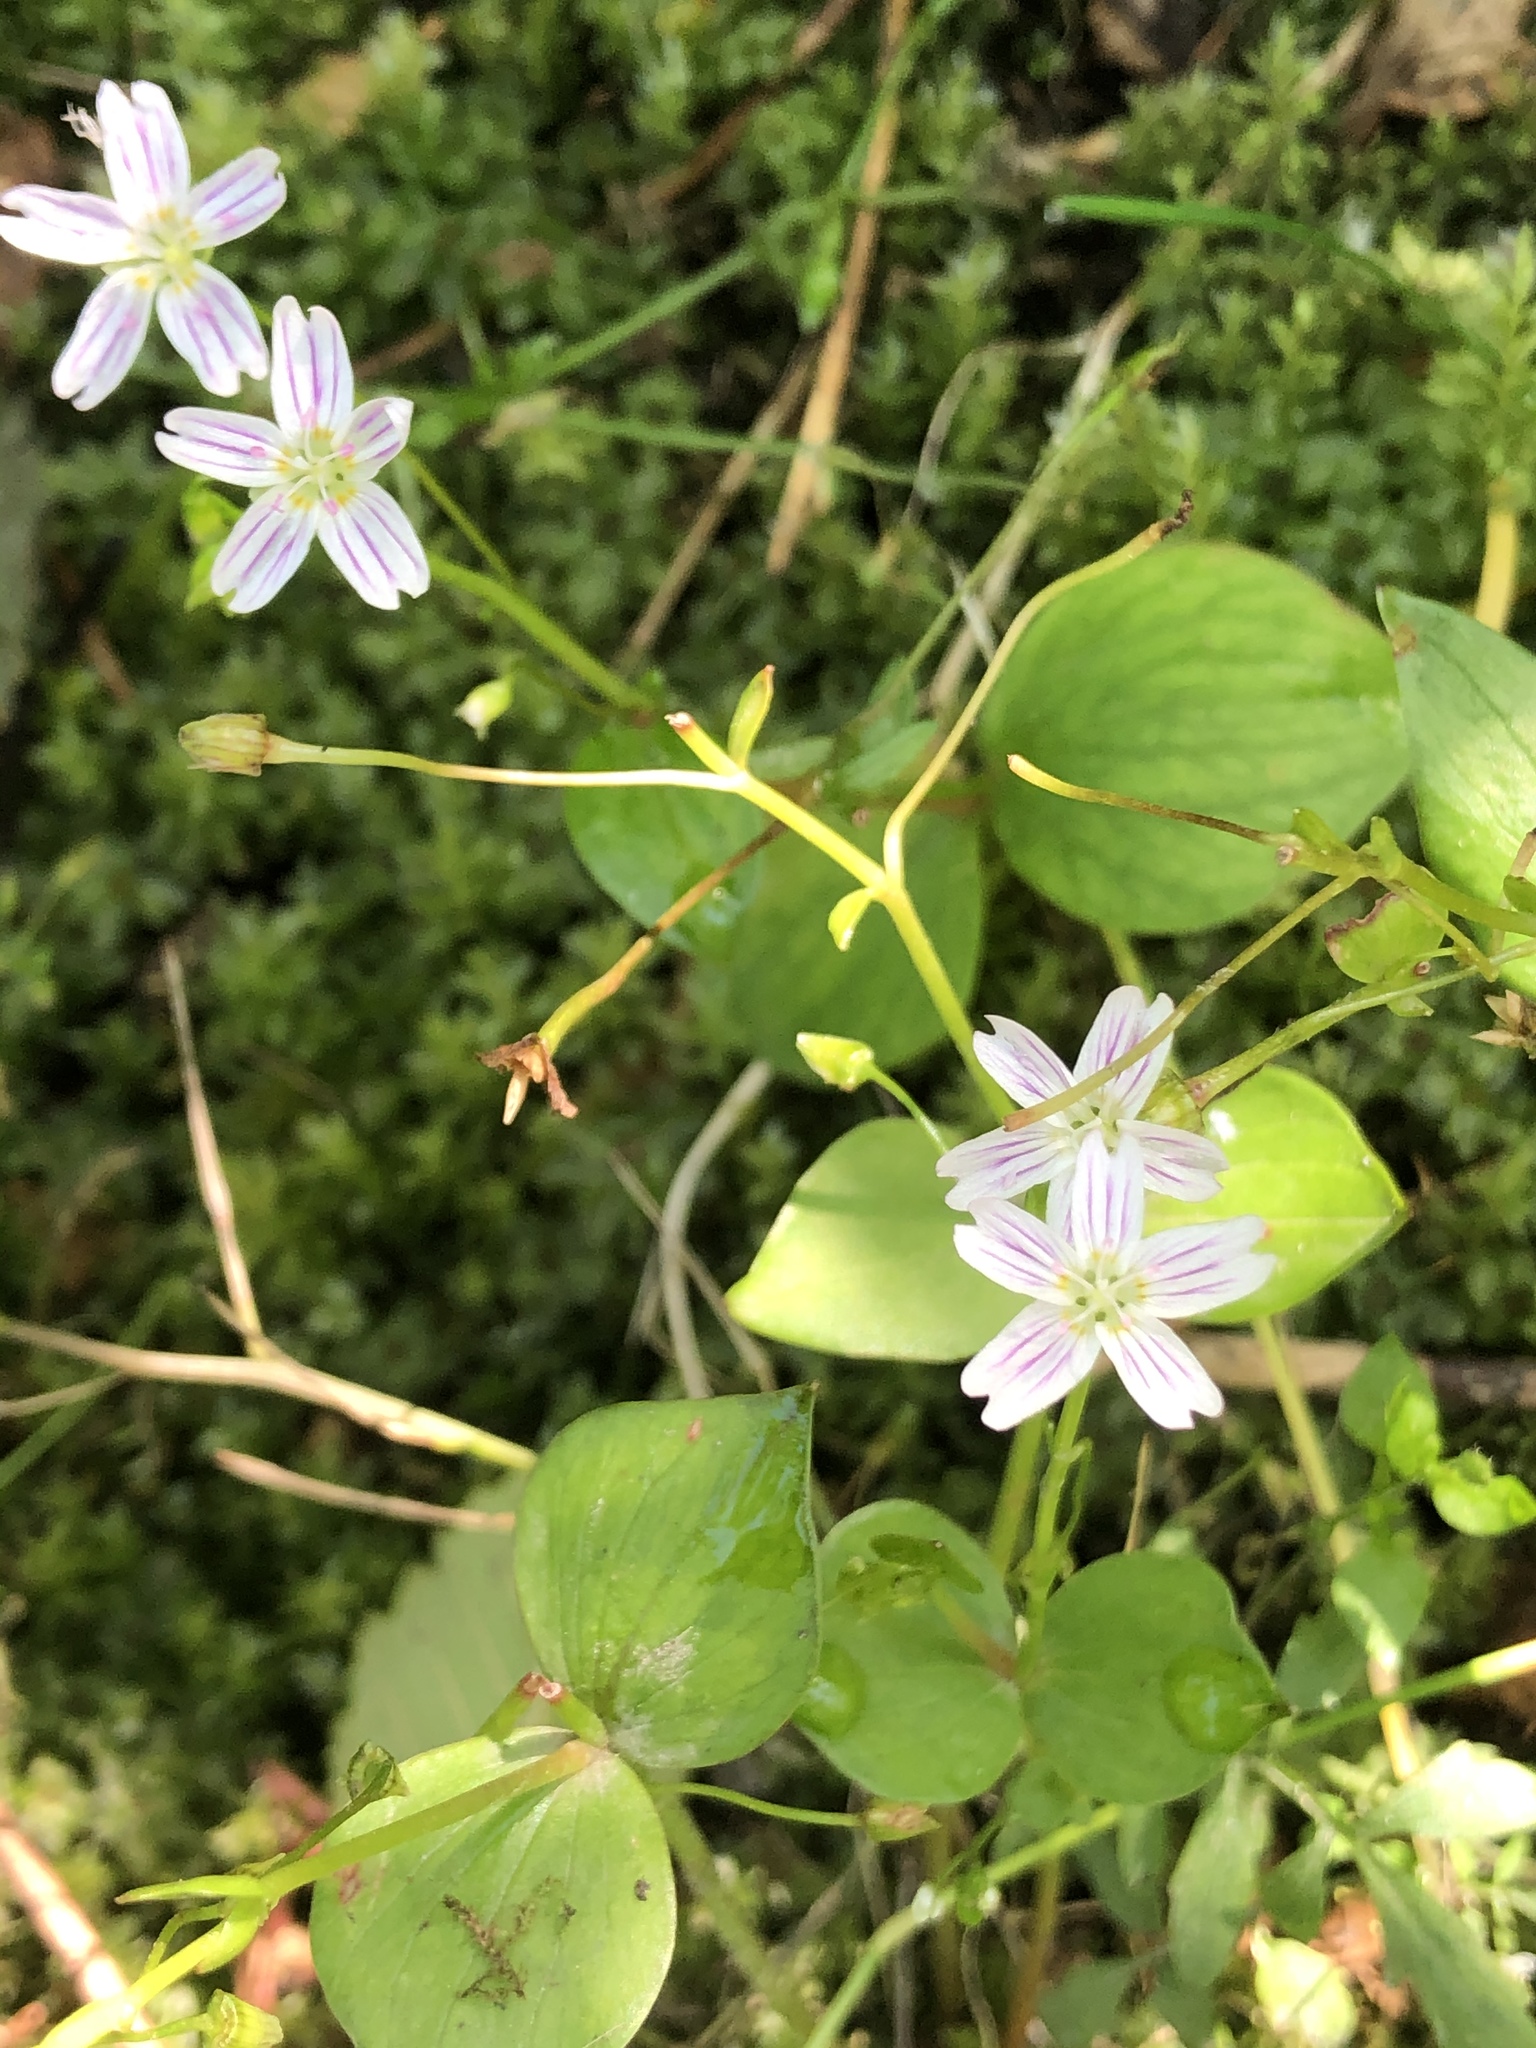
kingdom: Plantae
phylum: Tracheophyta
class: Magnoliopsida
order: Caryophyllales
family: Montiaceae
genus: Claytonia
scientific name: Claytonia sibirica
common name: Pink purslane
